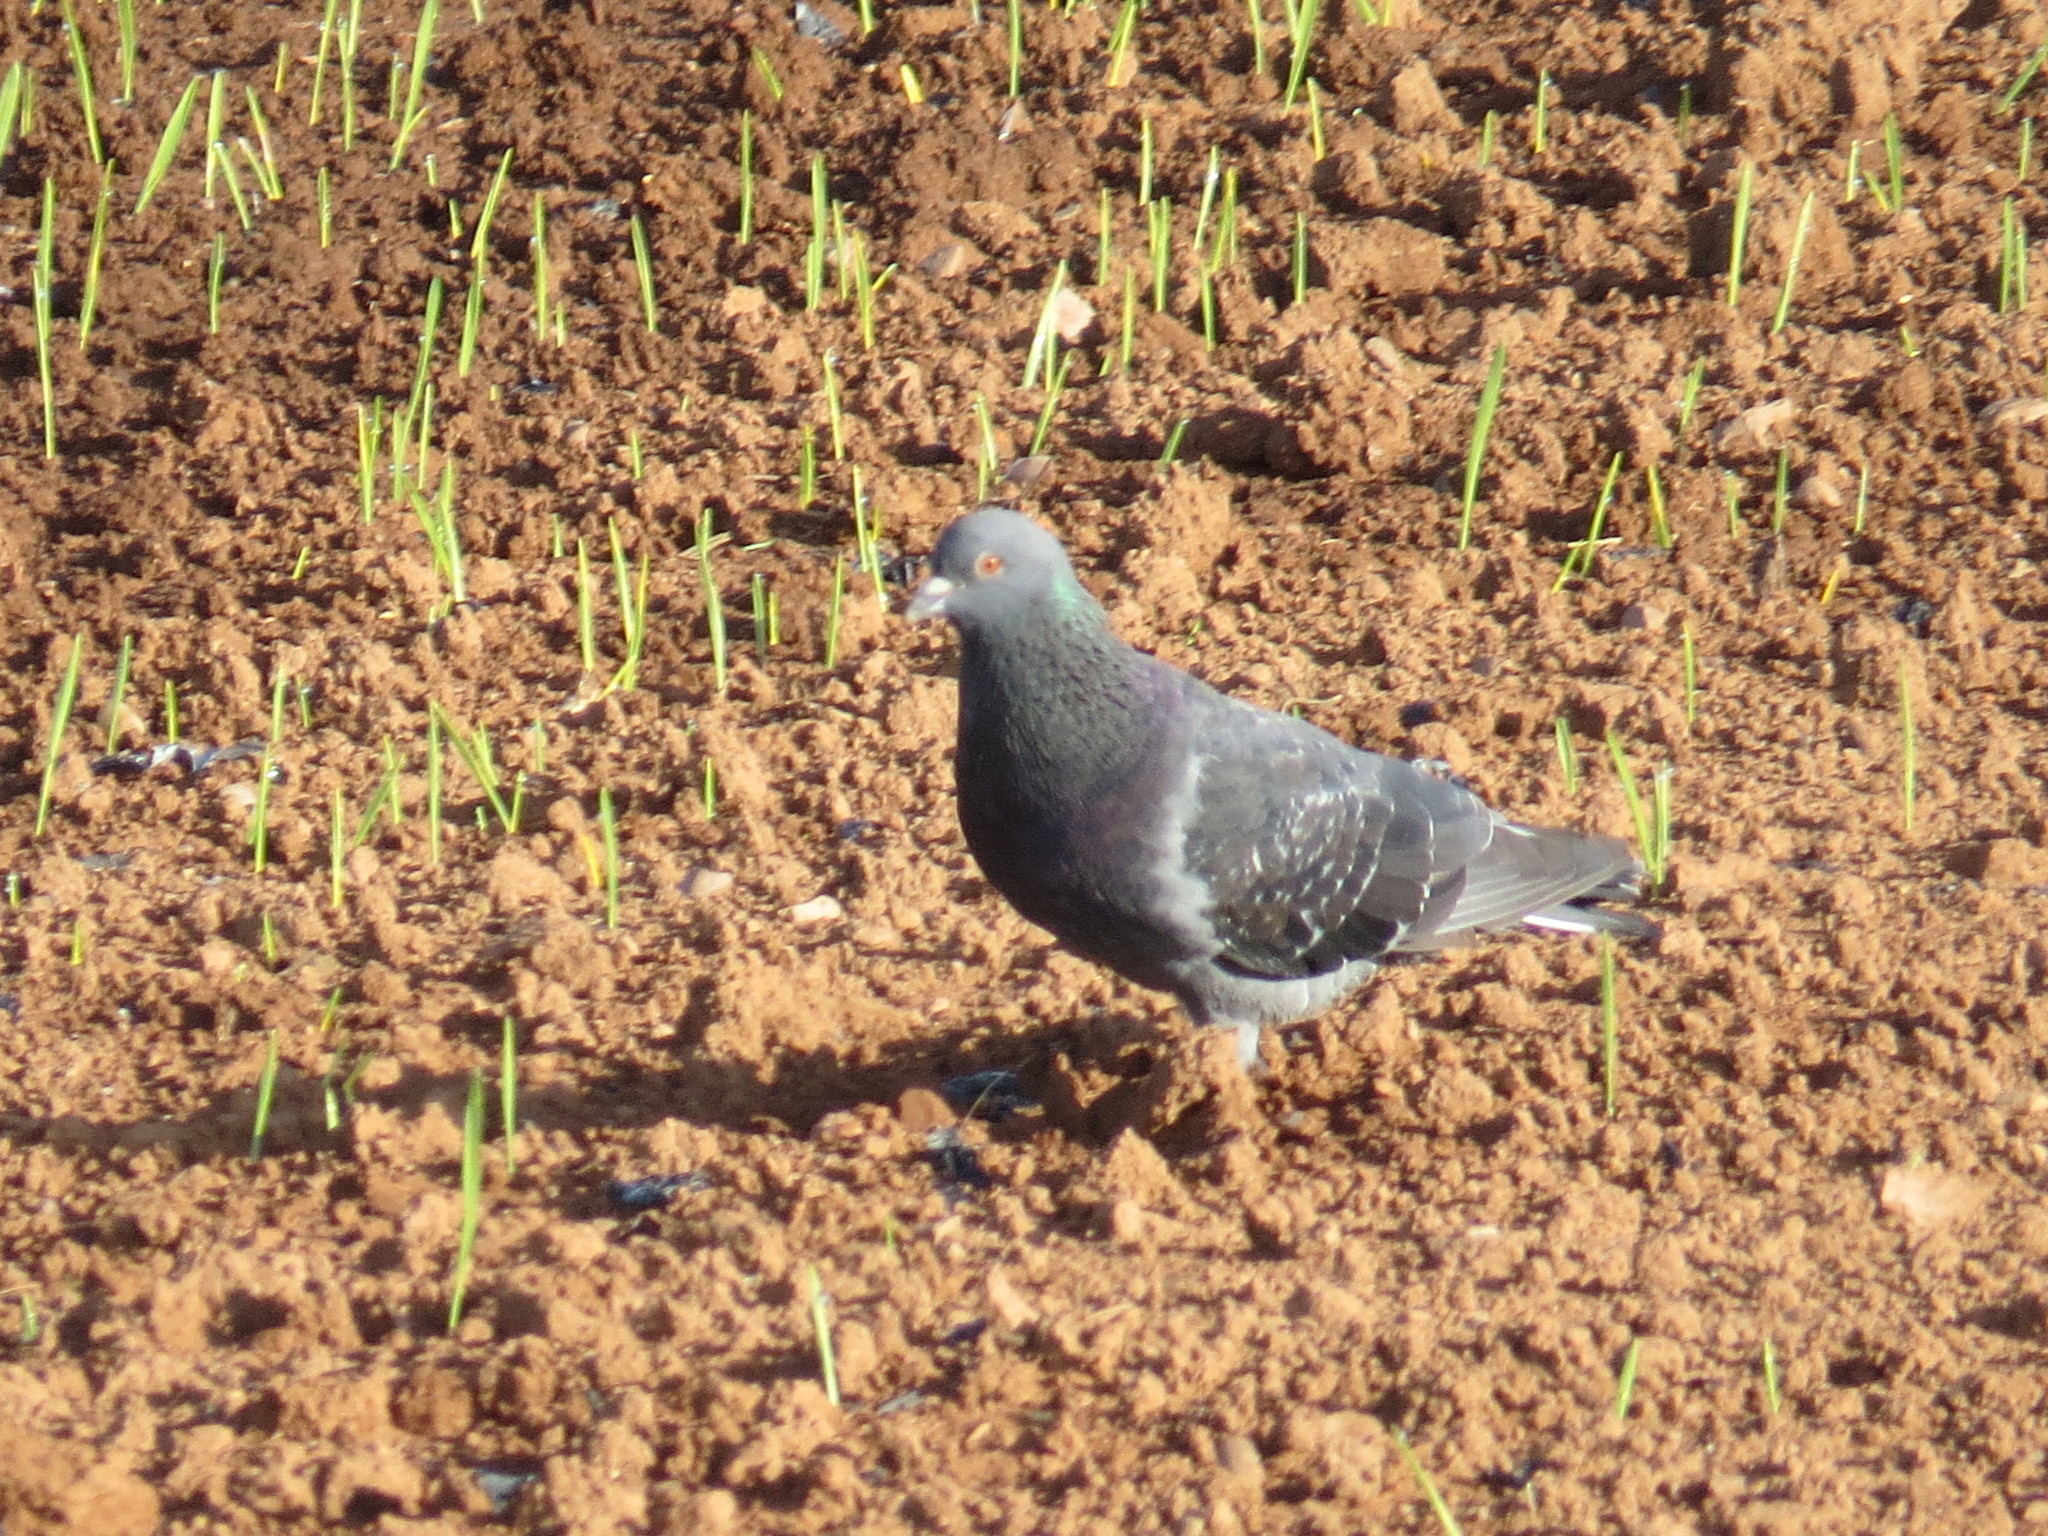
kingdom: Animalia
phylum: Chordata
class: Aves
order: Columbiformes
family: Columbidae
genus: Columba
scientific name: Columba livia
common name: Rock pigeon
